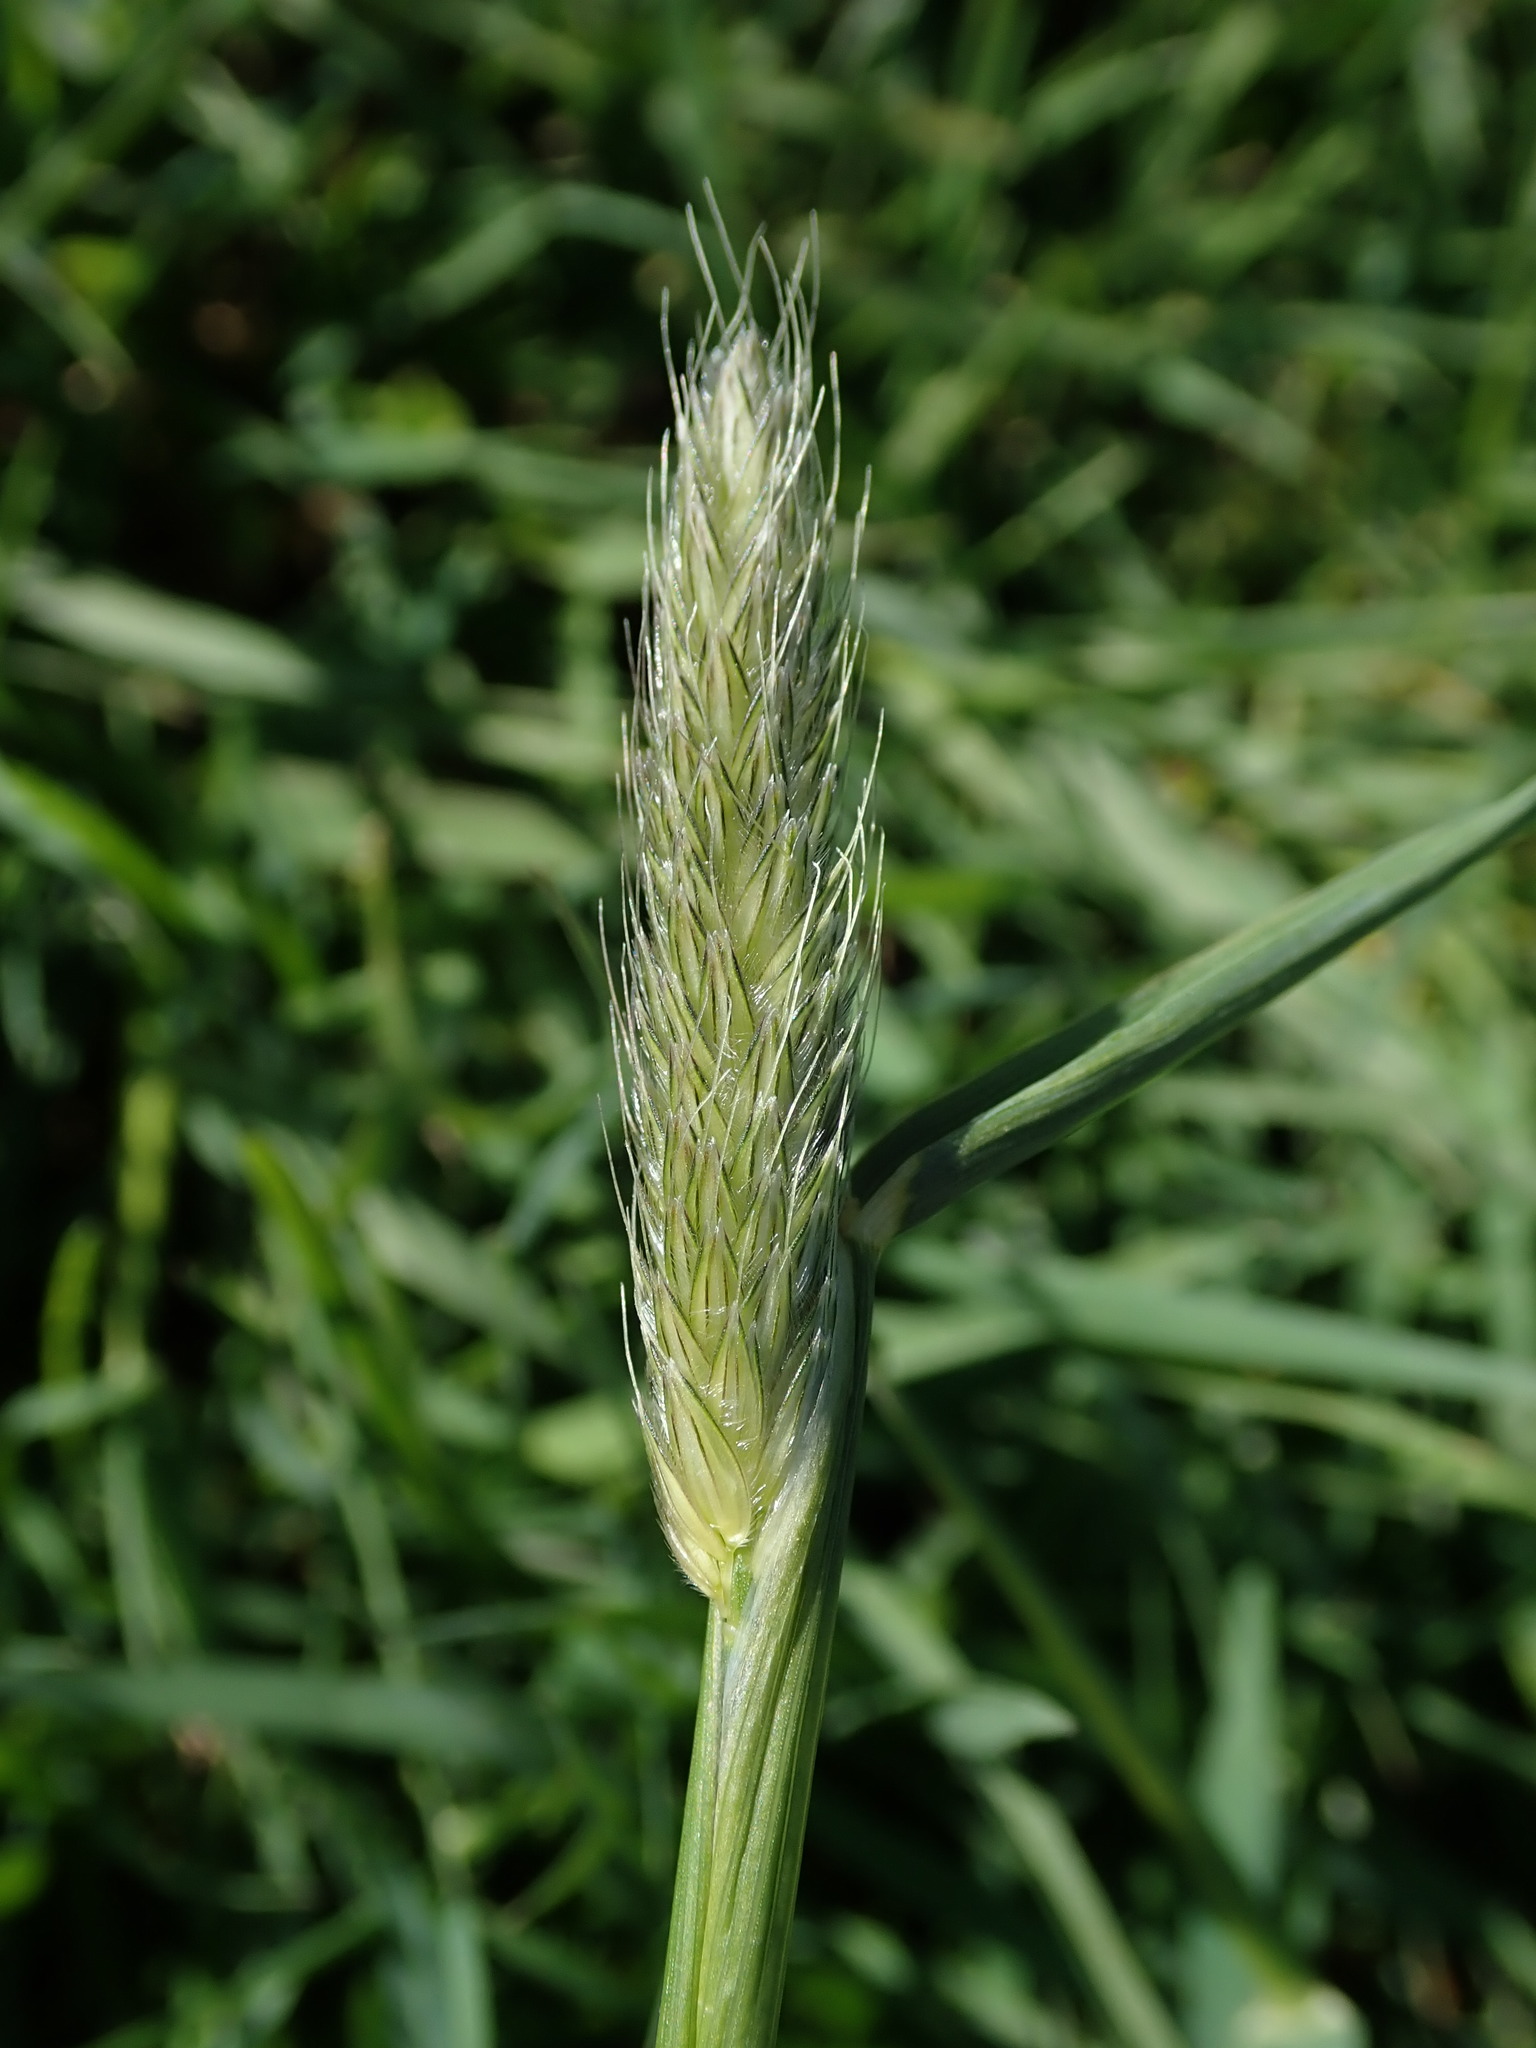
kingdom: Plantae
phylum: Tracheophyta
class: Liliopsida
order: Poales
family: Poaceae
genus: Alopecurus
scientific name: Alopecurus pratensis
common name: Meadow foxtail
